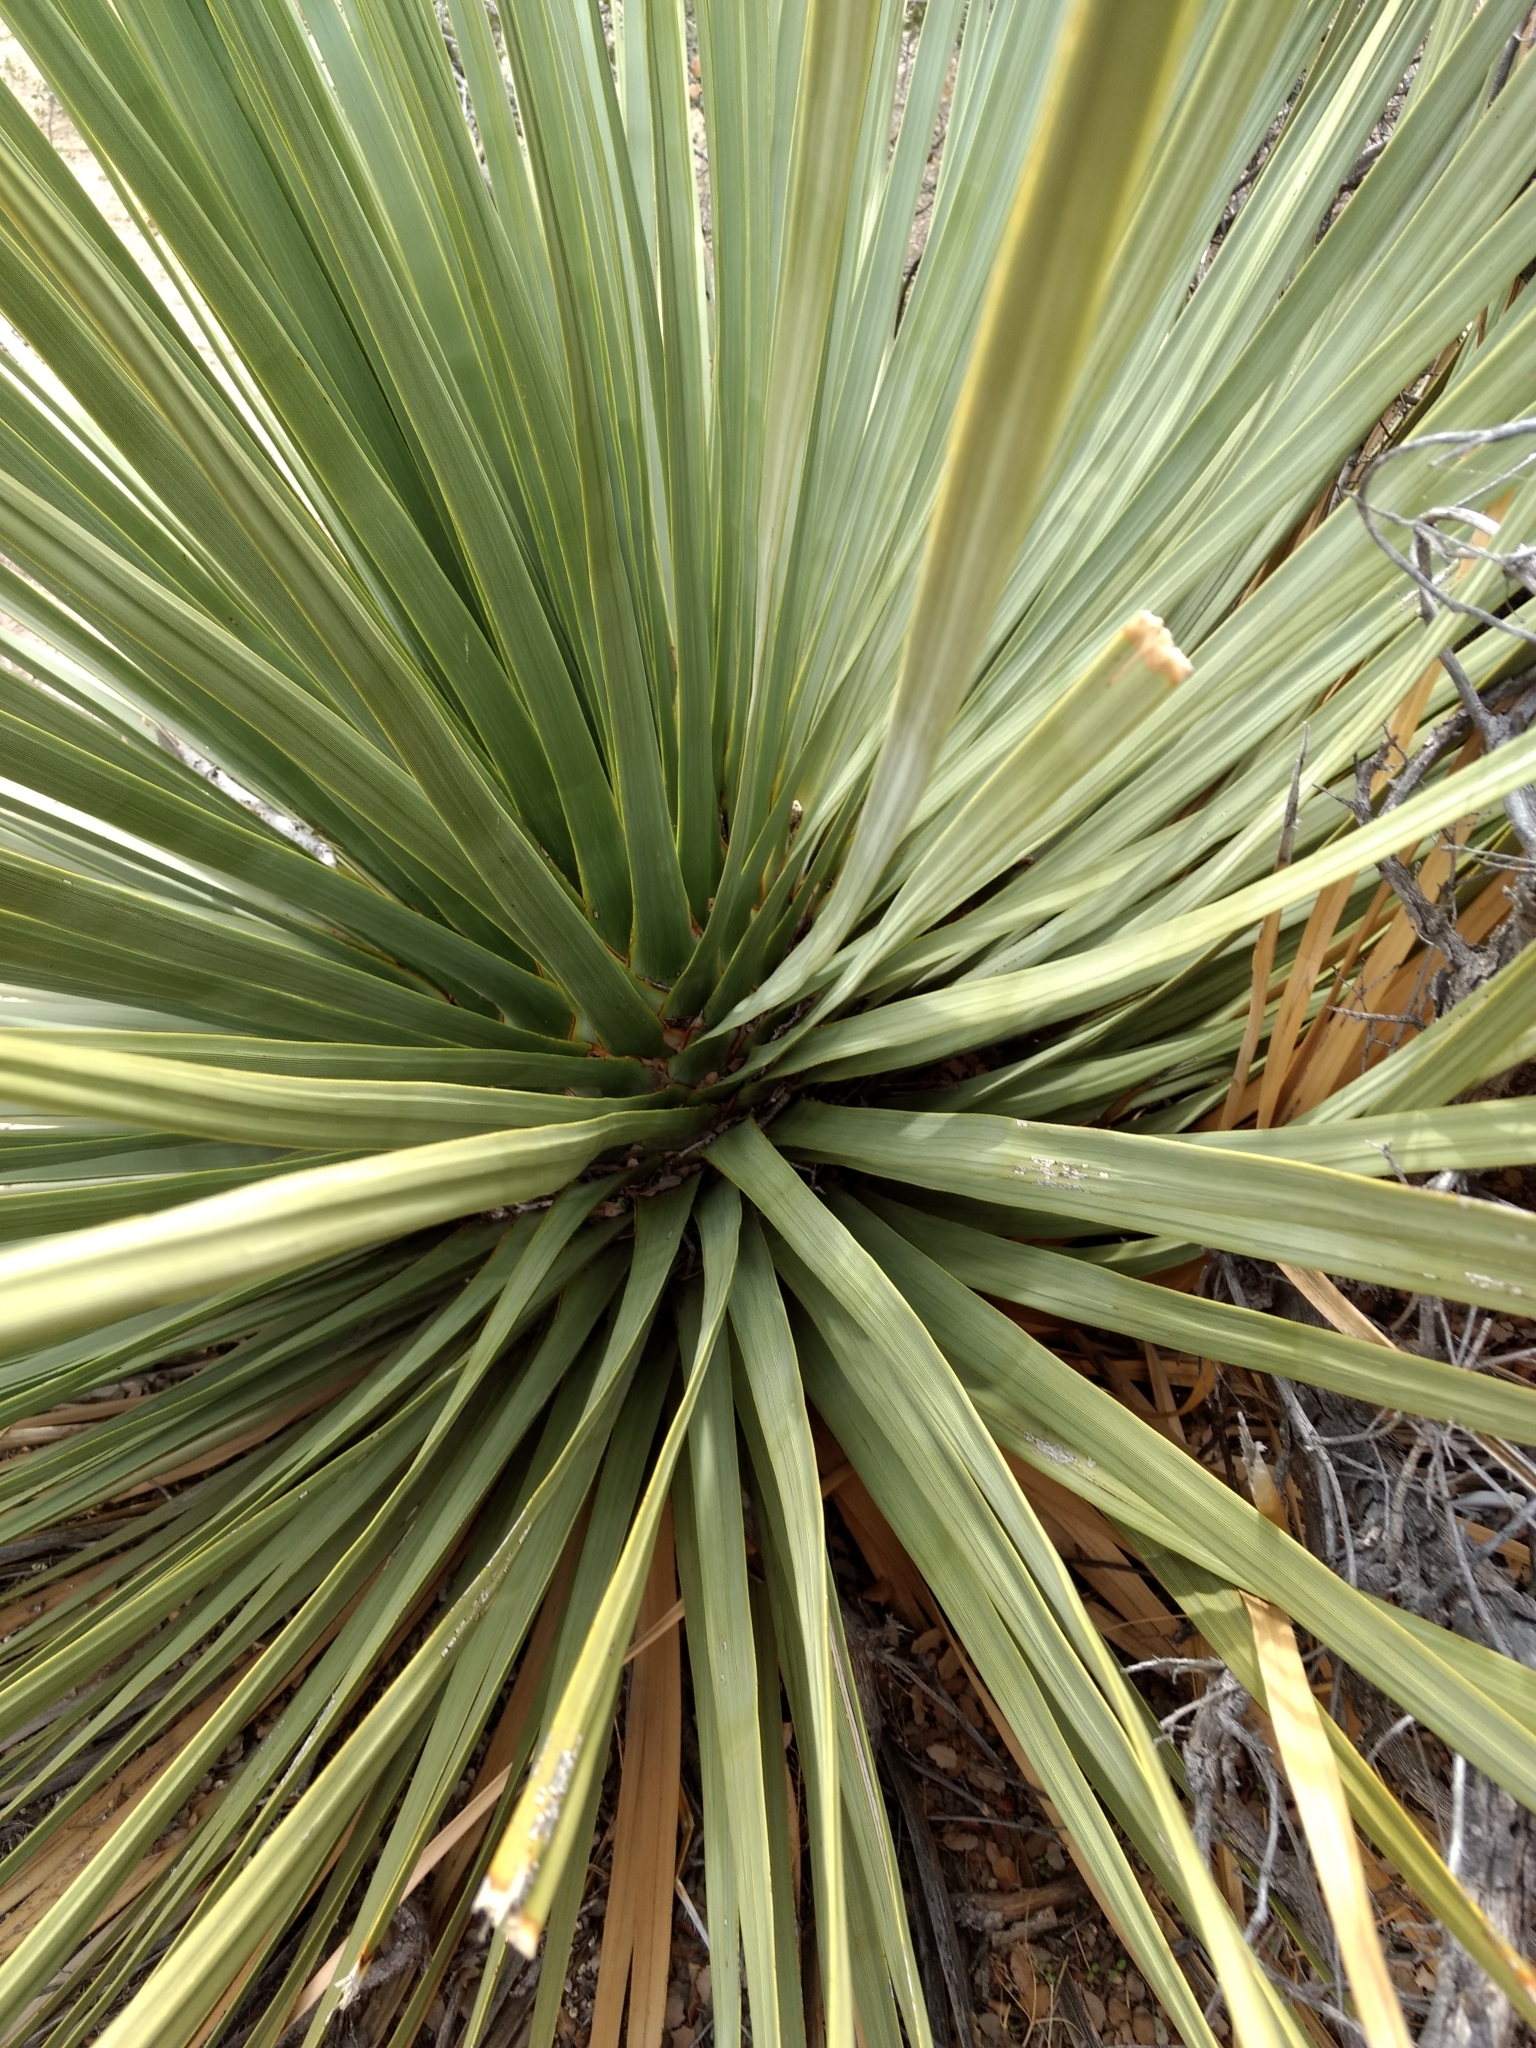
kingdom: Plantae
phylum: Tracheophyta
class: Liliopsida
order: Asparagales
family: Asparagaceae
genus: Nolina
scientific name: Nolina parryi
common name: Parry nolina
